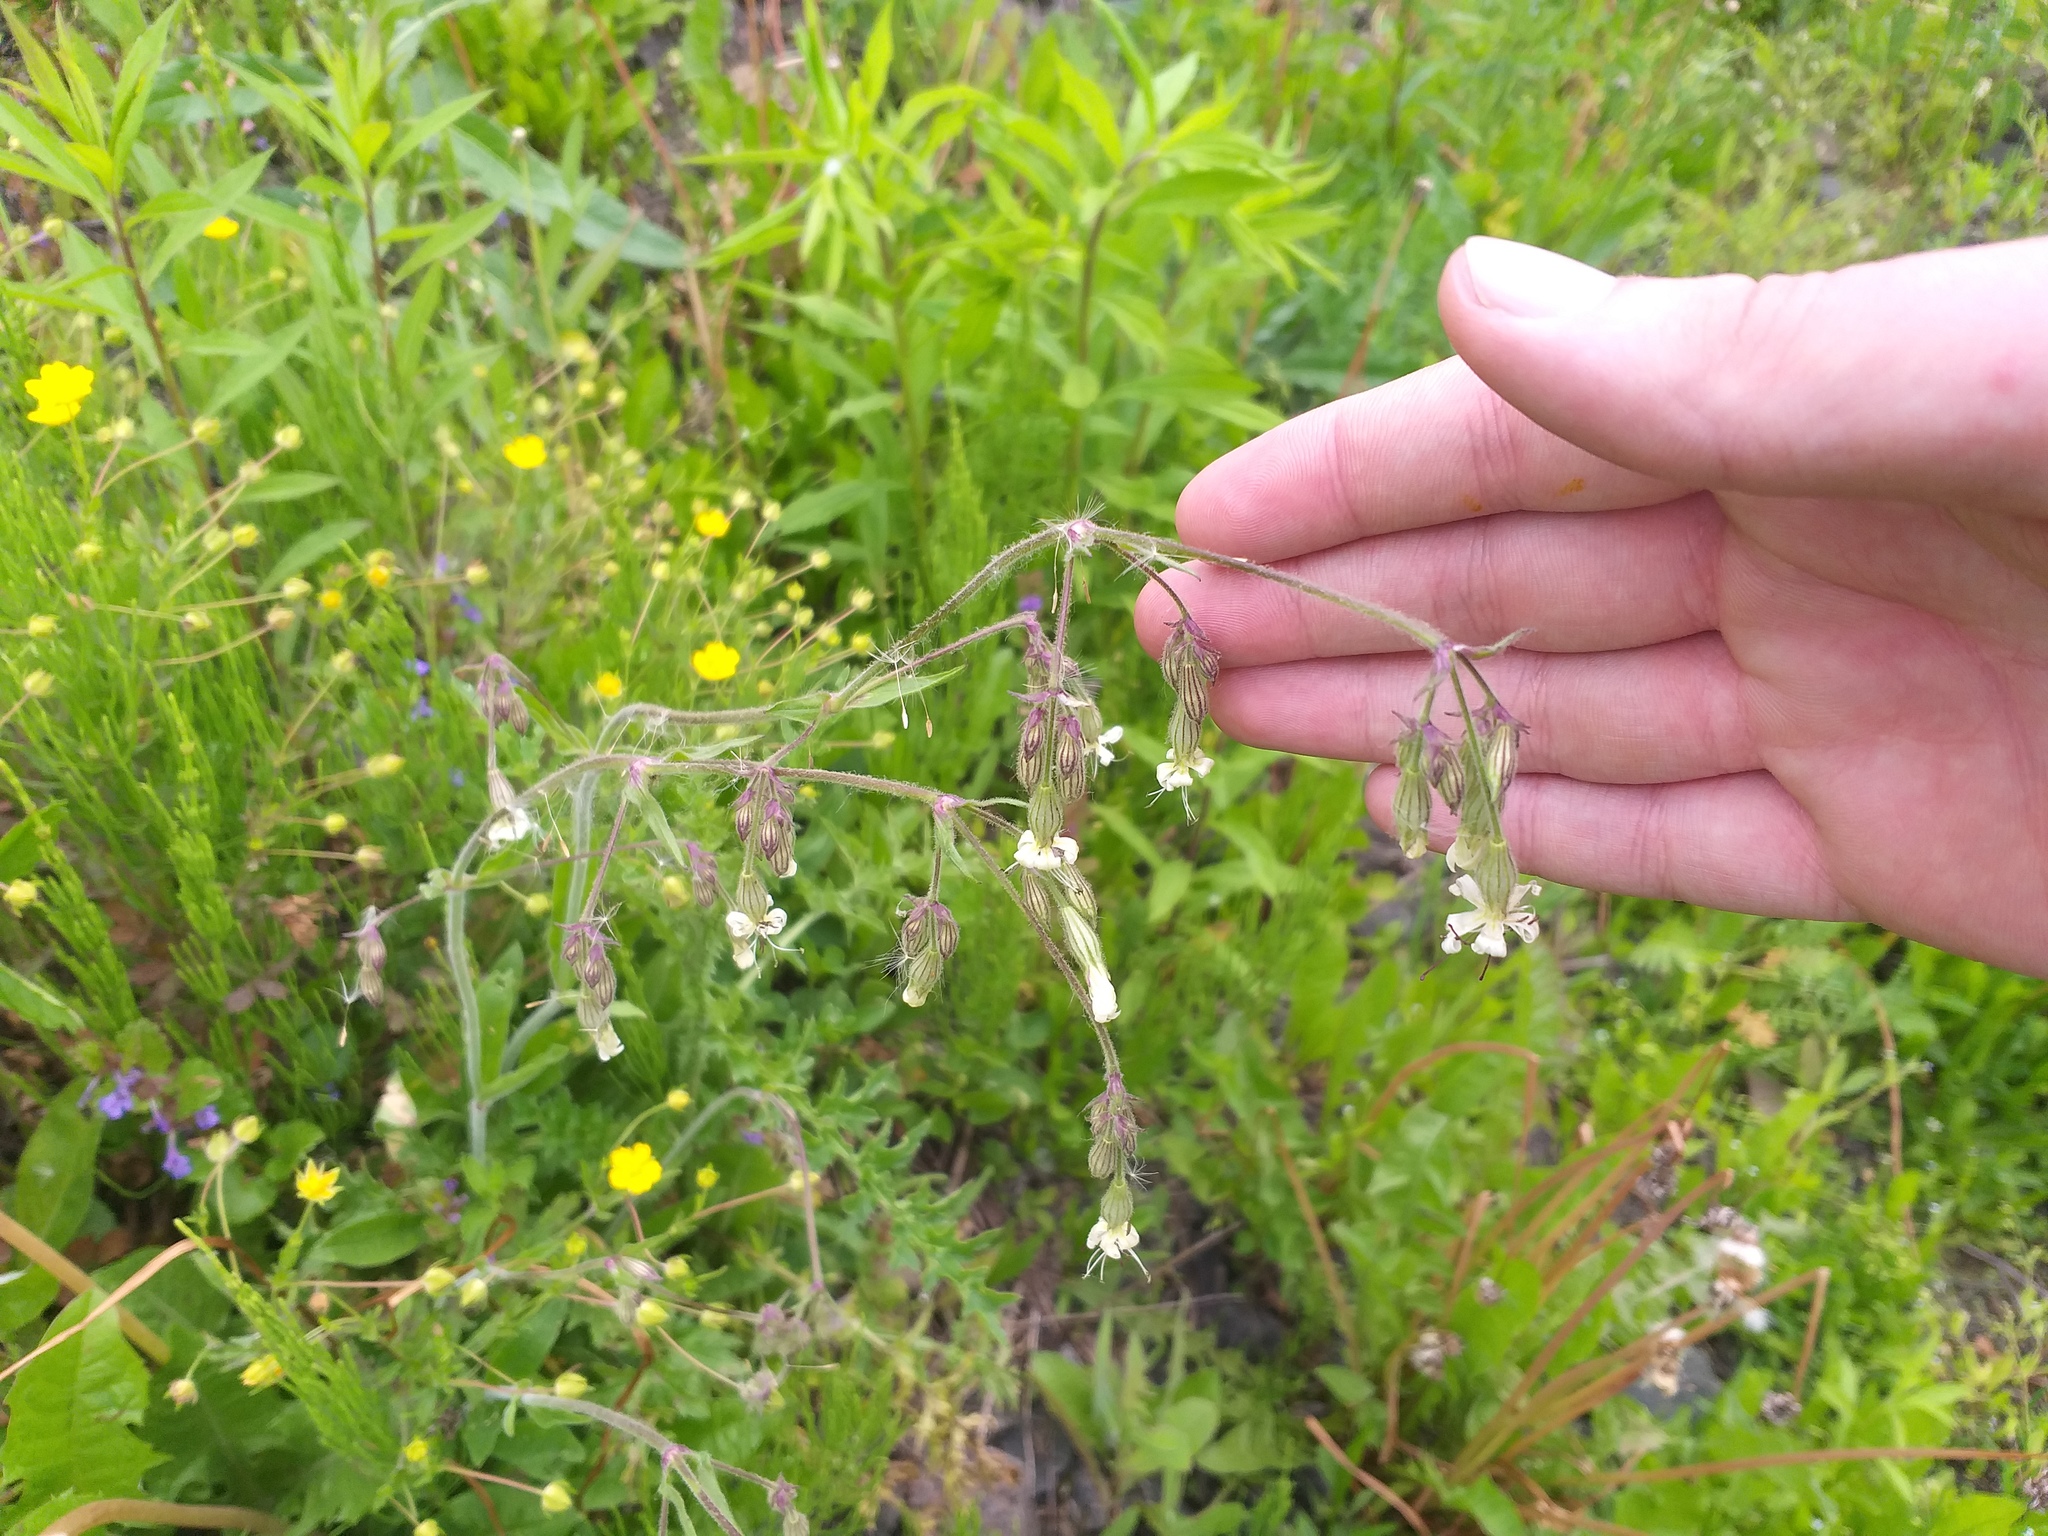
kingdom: Plantae
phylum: Tracheophyta
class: Magnoliopsida
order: Caryophyllales
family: Caryophyllaceae
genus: Silene
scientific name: Silene nutans
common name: Nottingham catchfly
